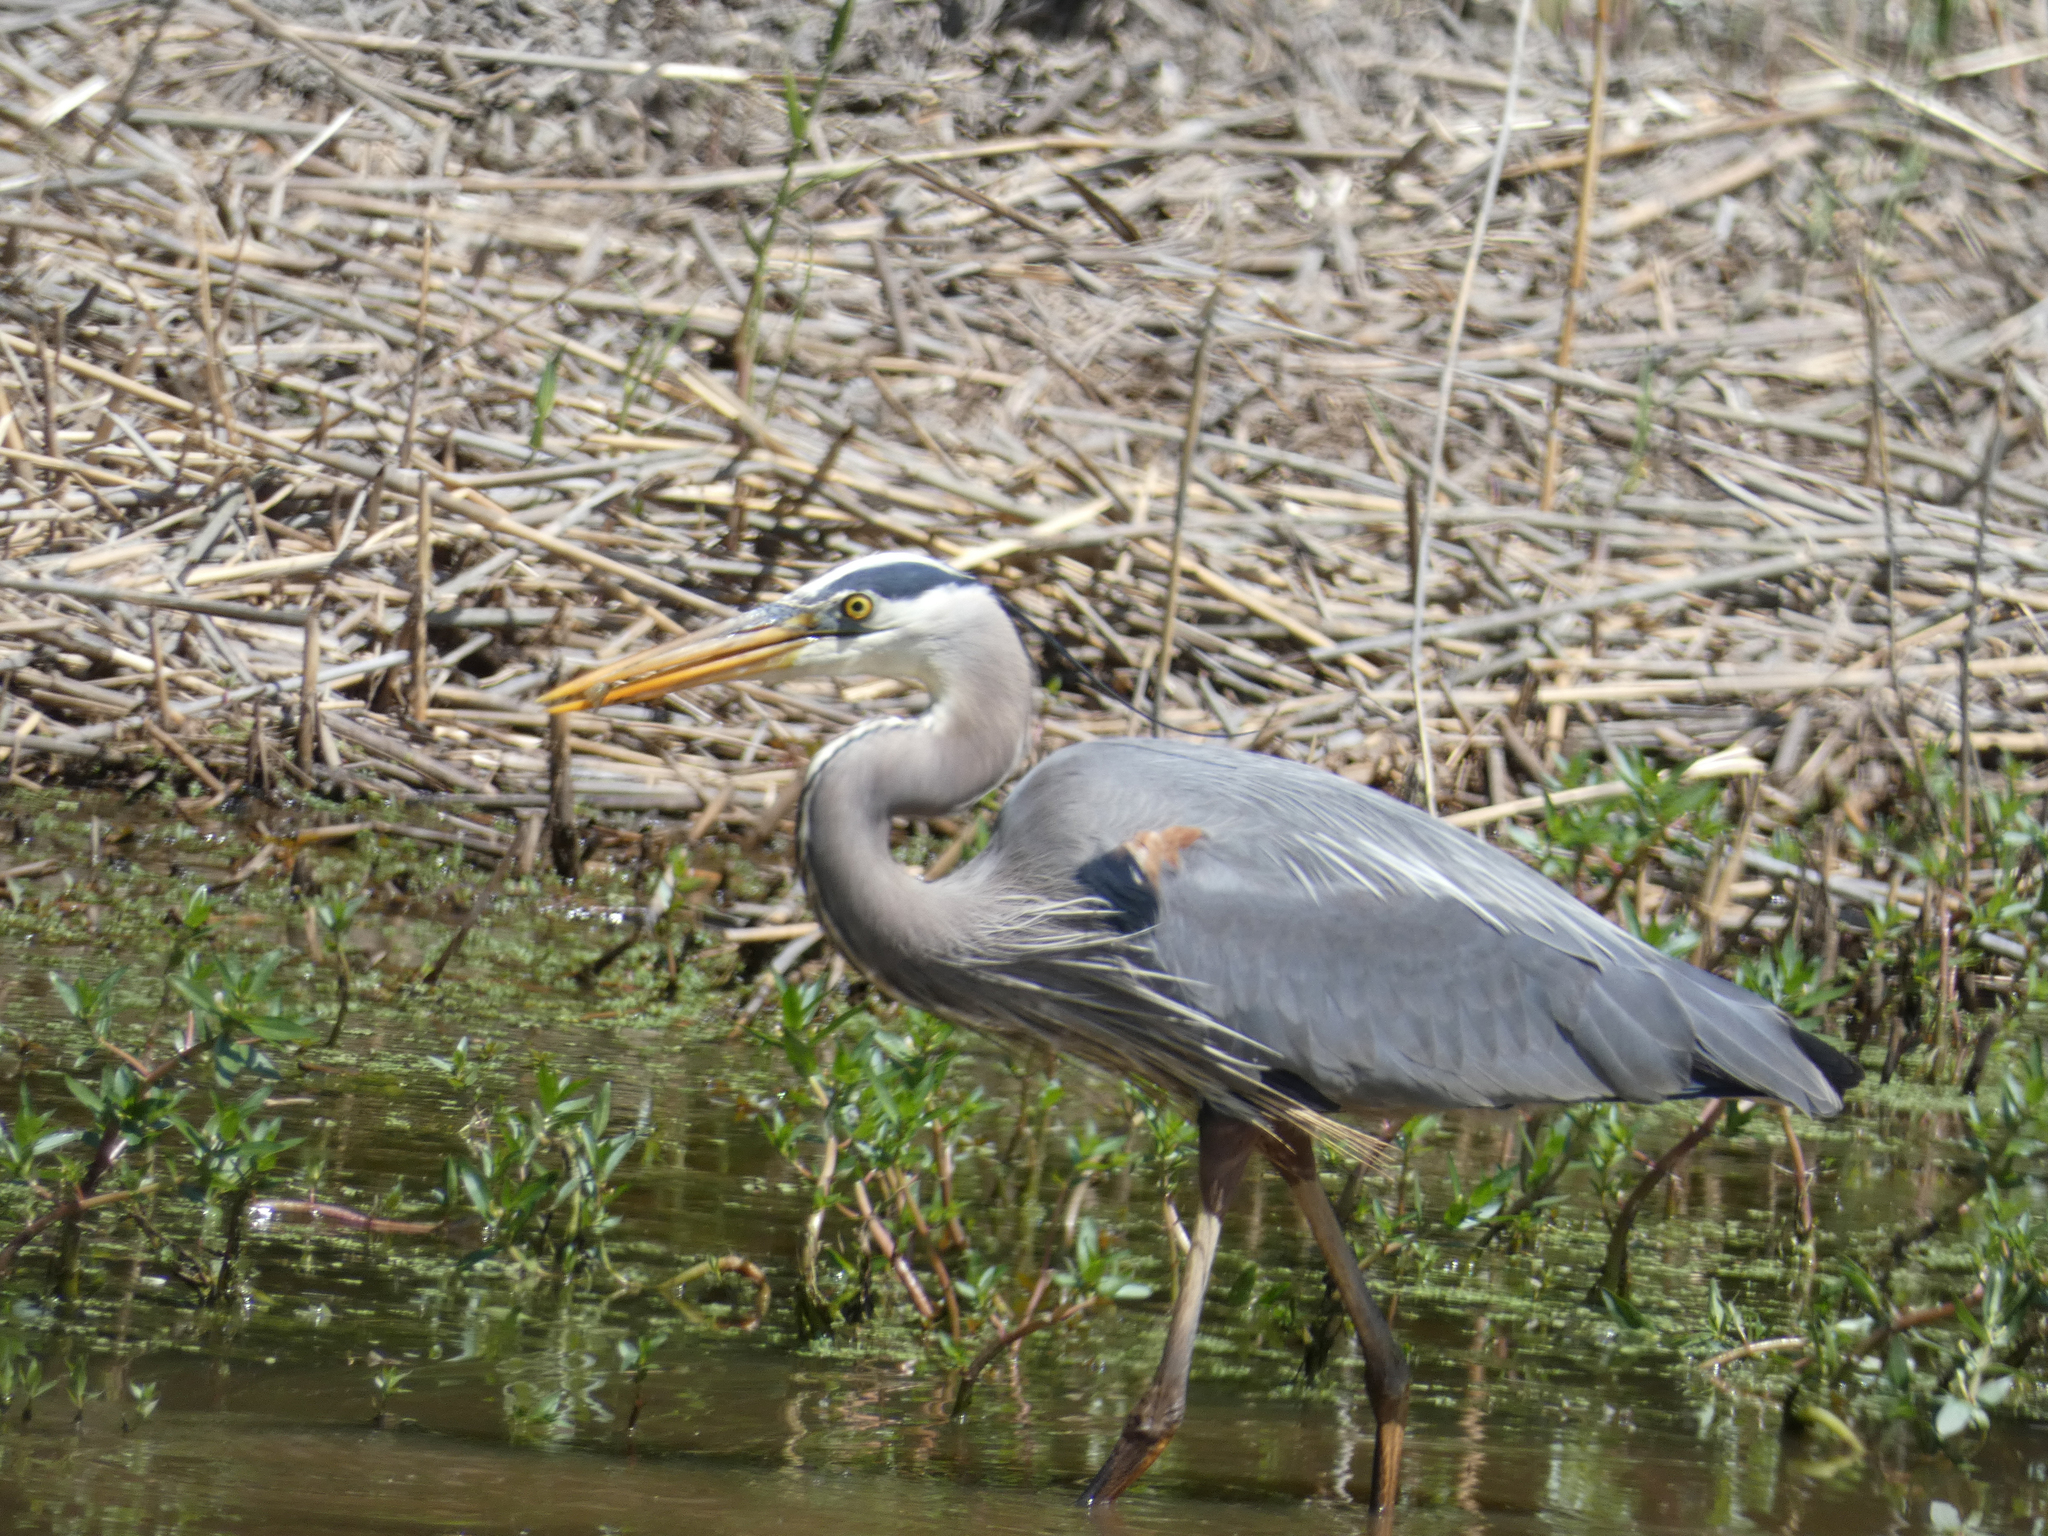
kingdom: Animalia
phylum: Chordata
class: Aves
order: Pelecaniformes
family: Ardeidae
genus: Ardea
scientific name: Ardea herodias
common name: Great blue heron
